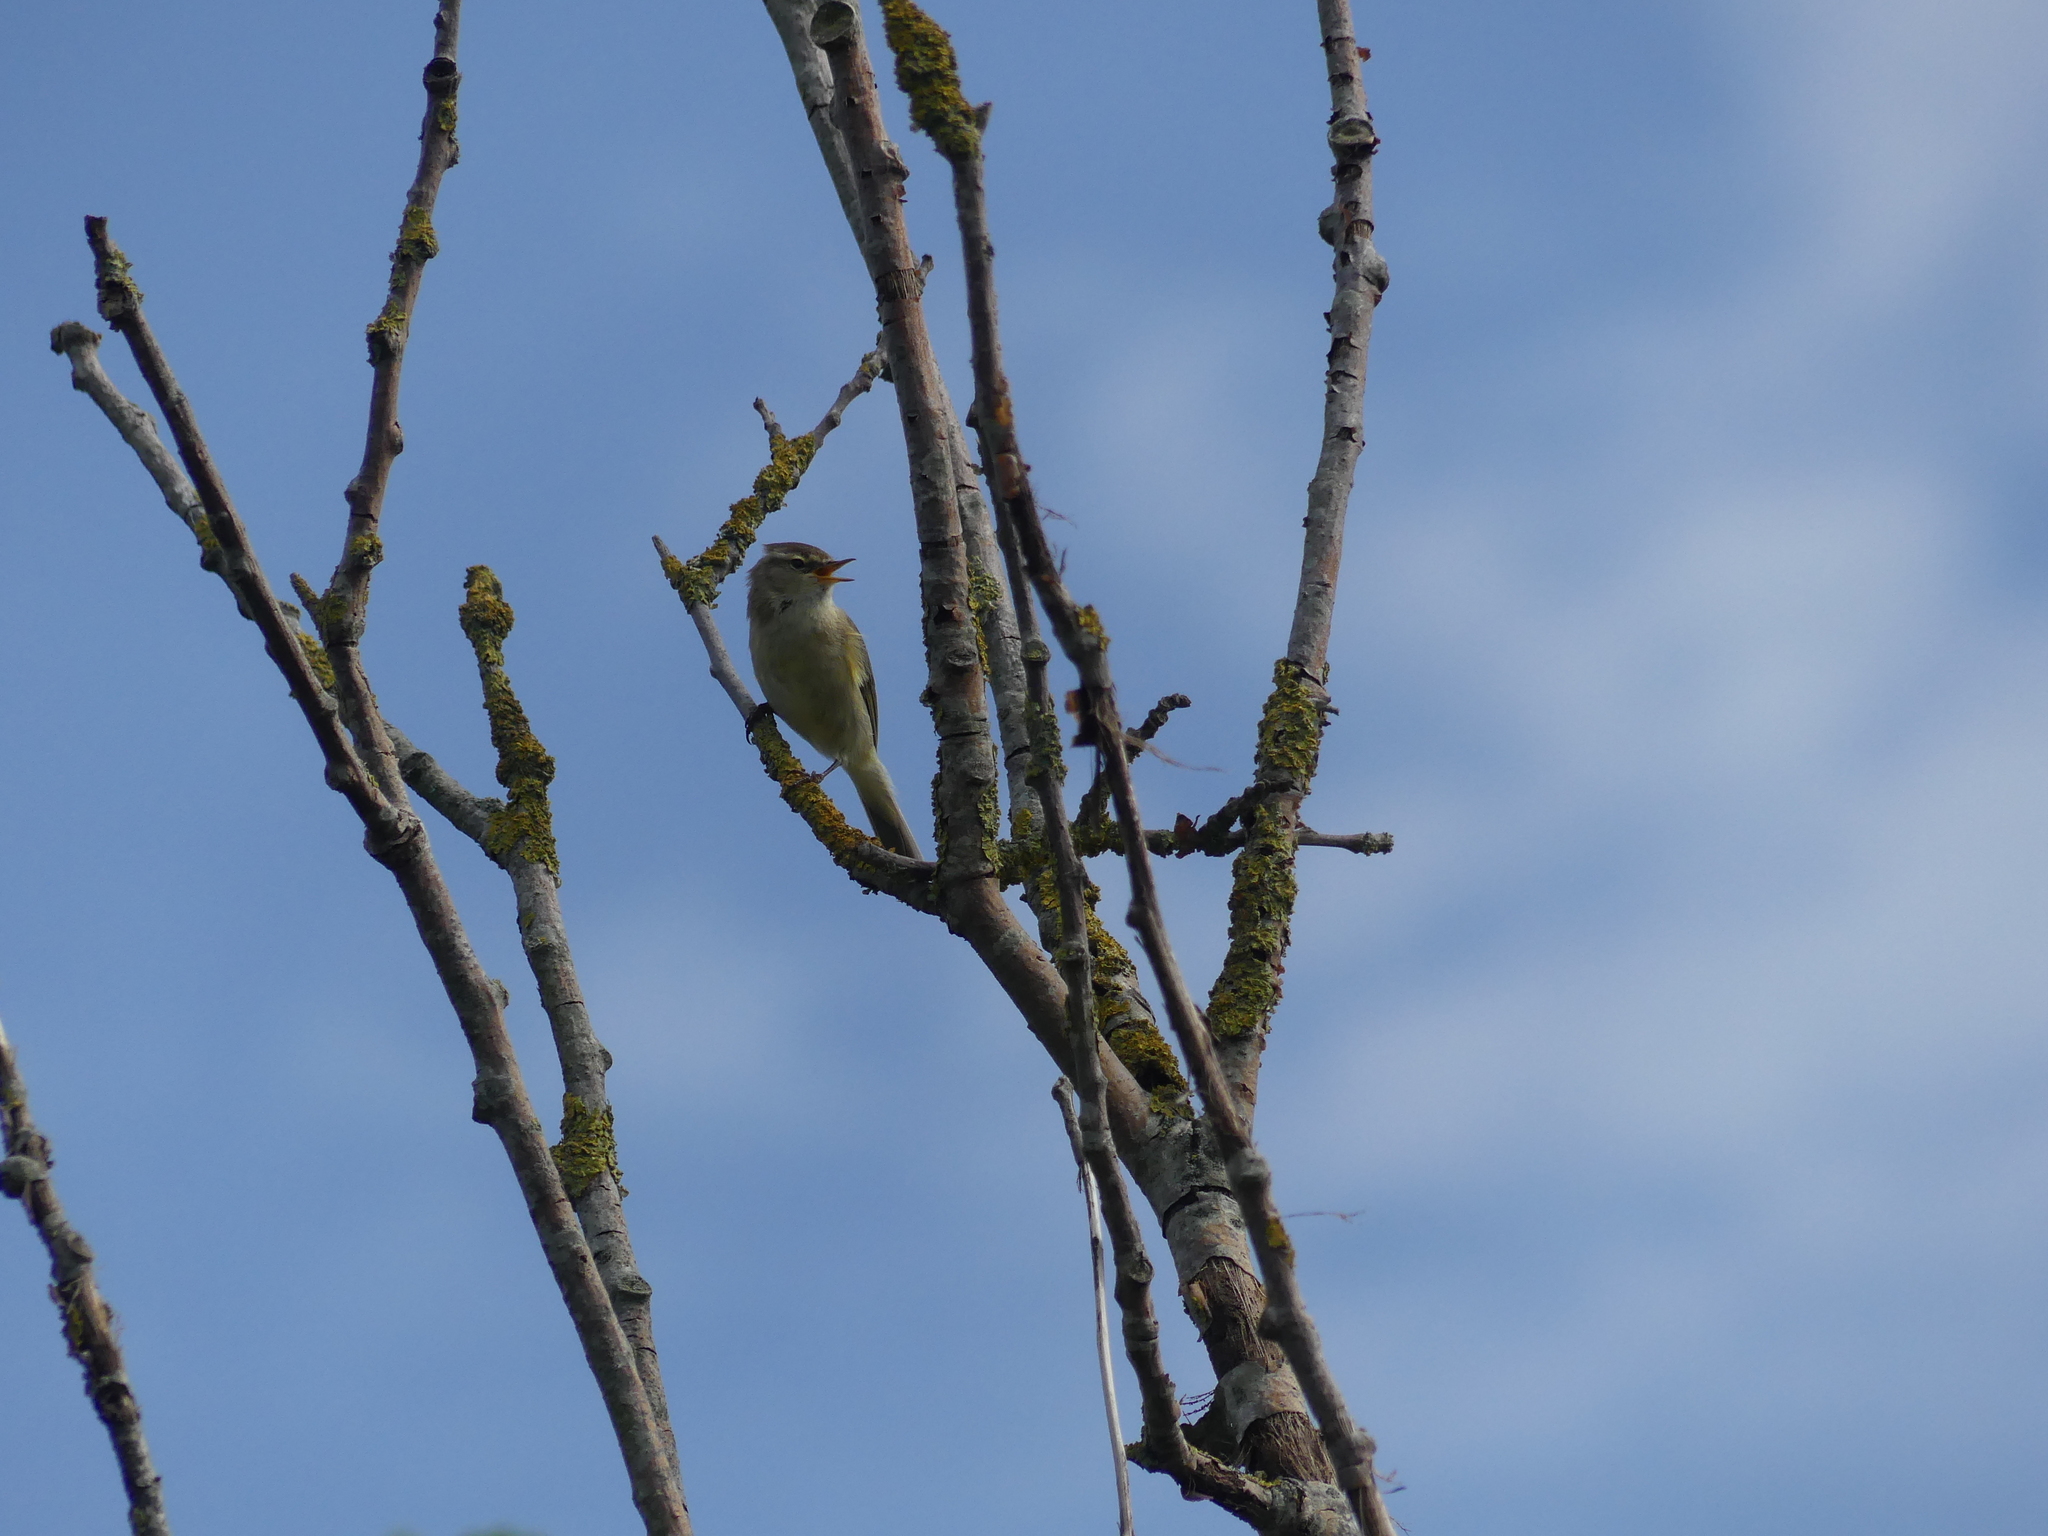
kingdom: Animalia
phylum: Chordata
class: Aves
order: Passeriformes
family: Phylloscopidae
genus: Phylloscopus
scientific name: Phylloscopus collybita
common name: Common chiffchaff
